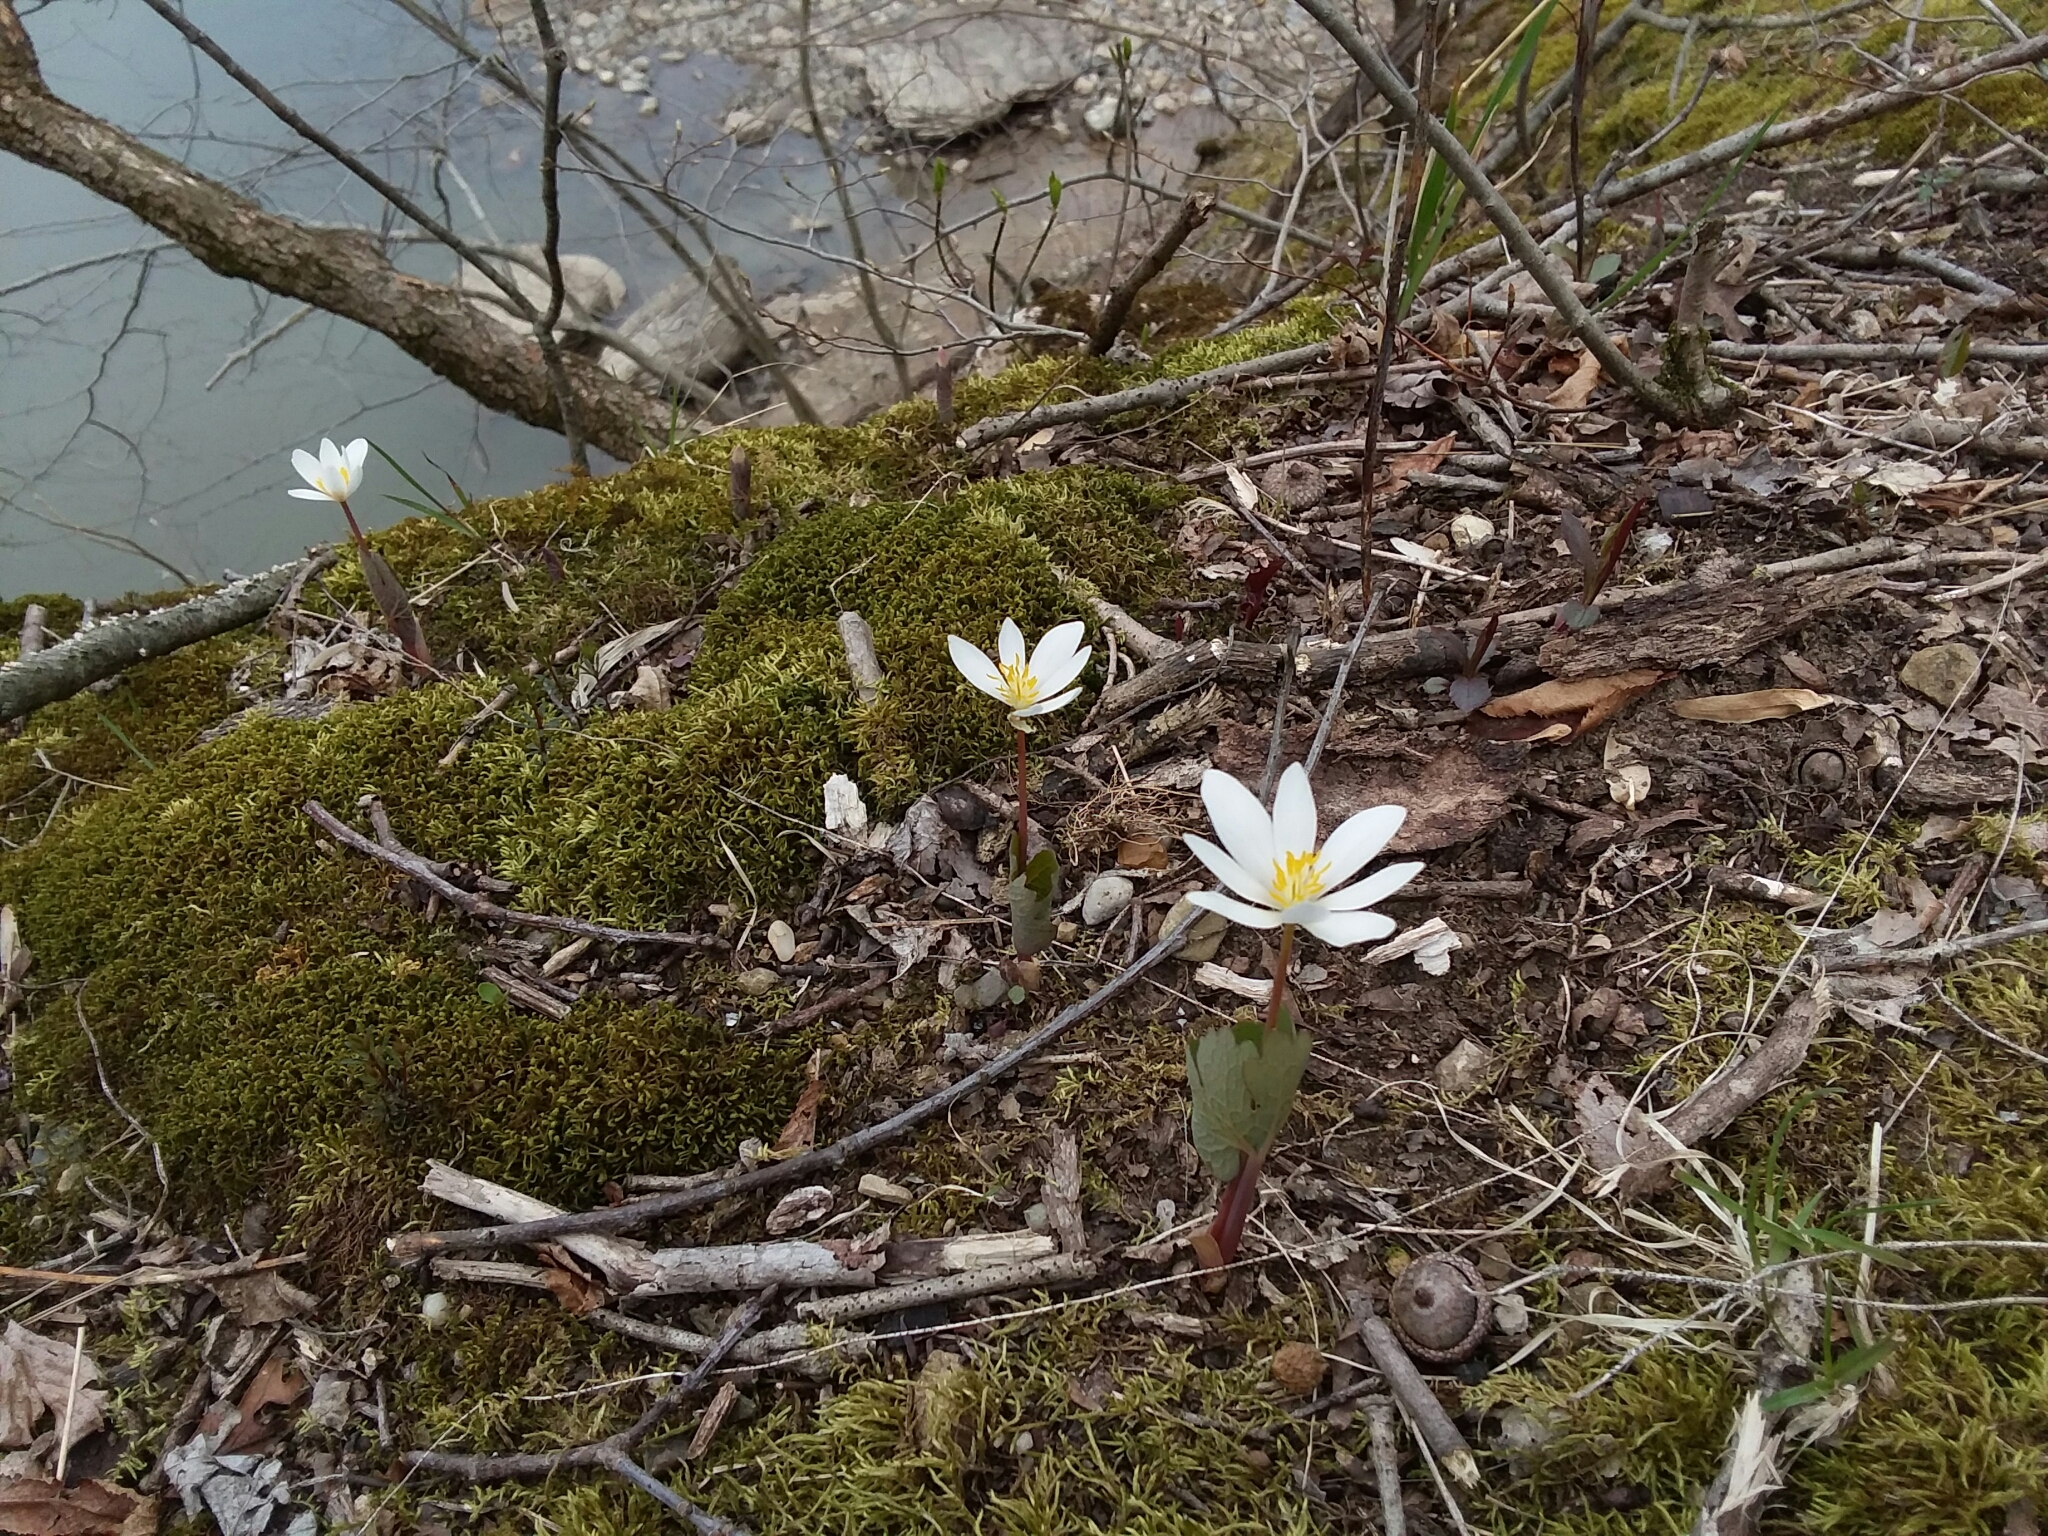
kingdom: Plantae
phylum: Tracheophyta
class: Magnoliopsida
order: Ranunculales
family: Papaveraceae
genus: Sanguinaria
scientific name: Sanguinaria canadensis
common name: Bloodroot
